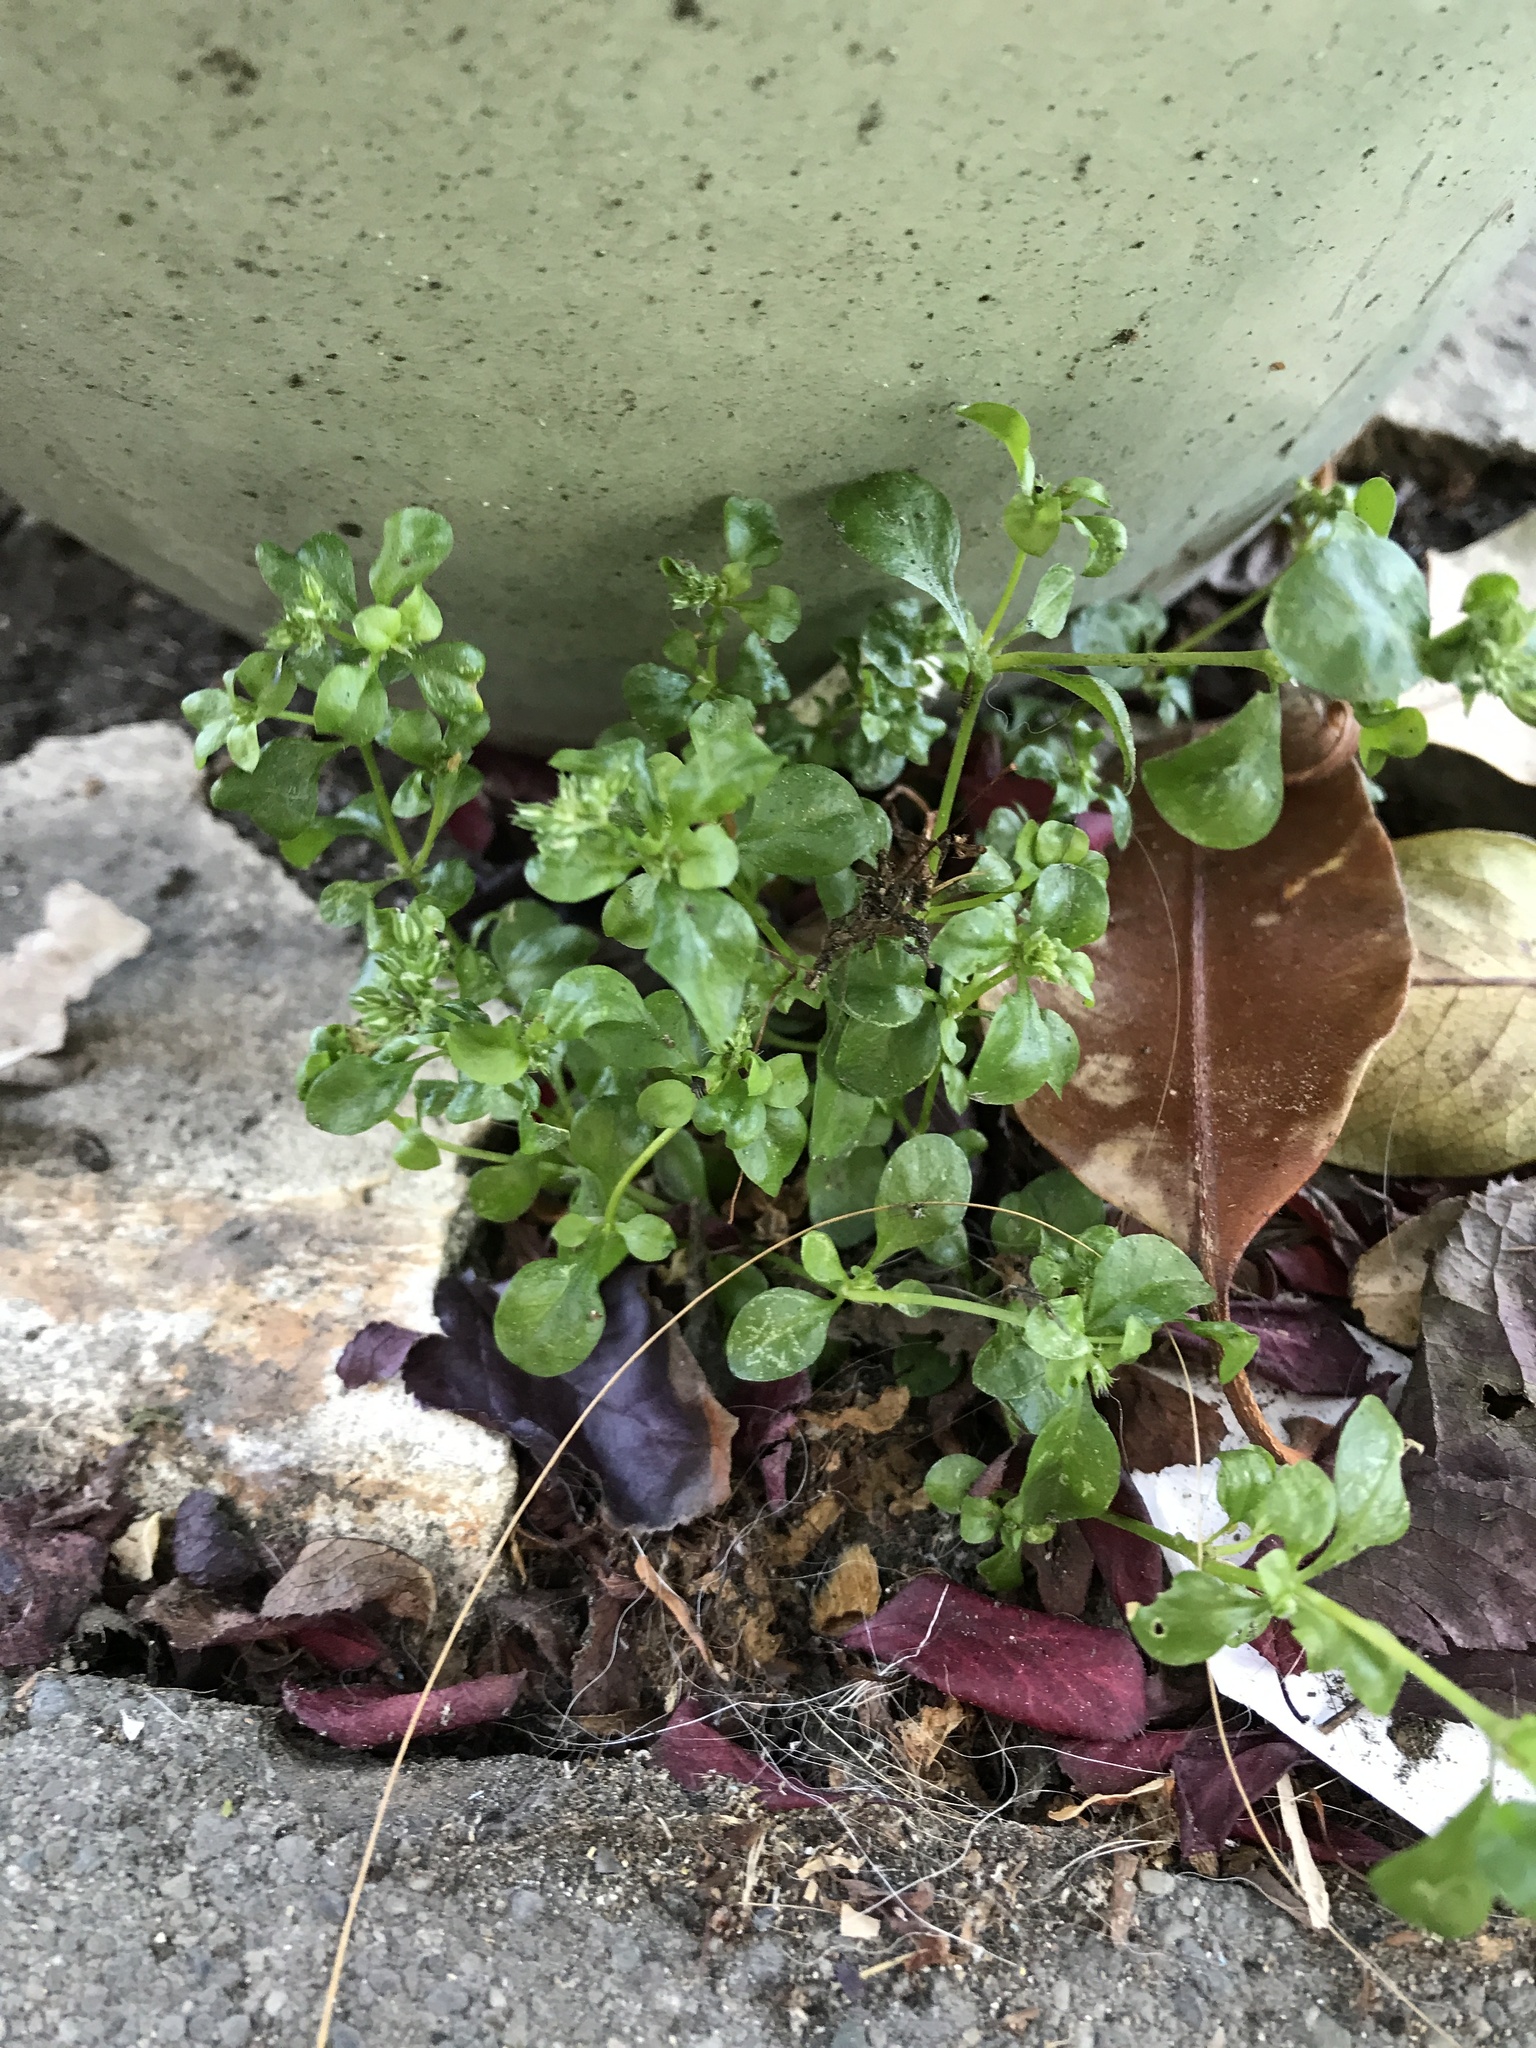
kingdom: Plantae
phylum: Tracheophyta
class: Magnoliopsida
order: Caryophyllales
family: Caryophyllaceae
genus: Polycarpon
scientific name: Polycarpon tetraphyllum
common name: Four-leaved all-seed
